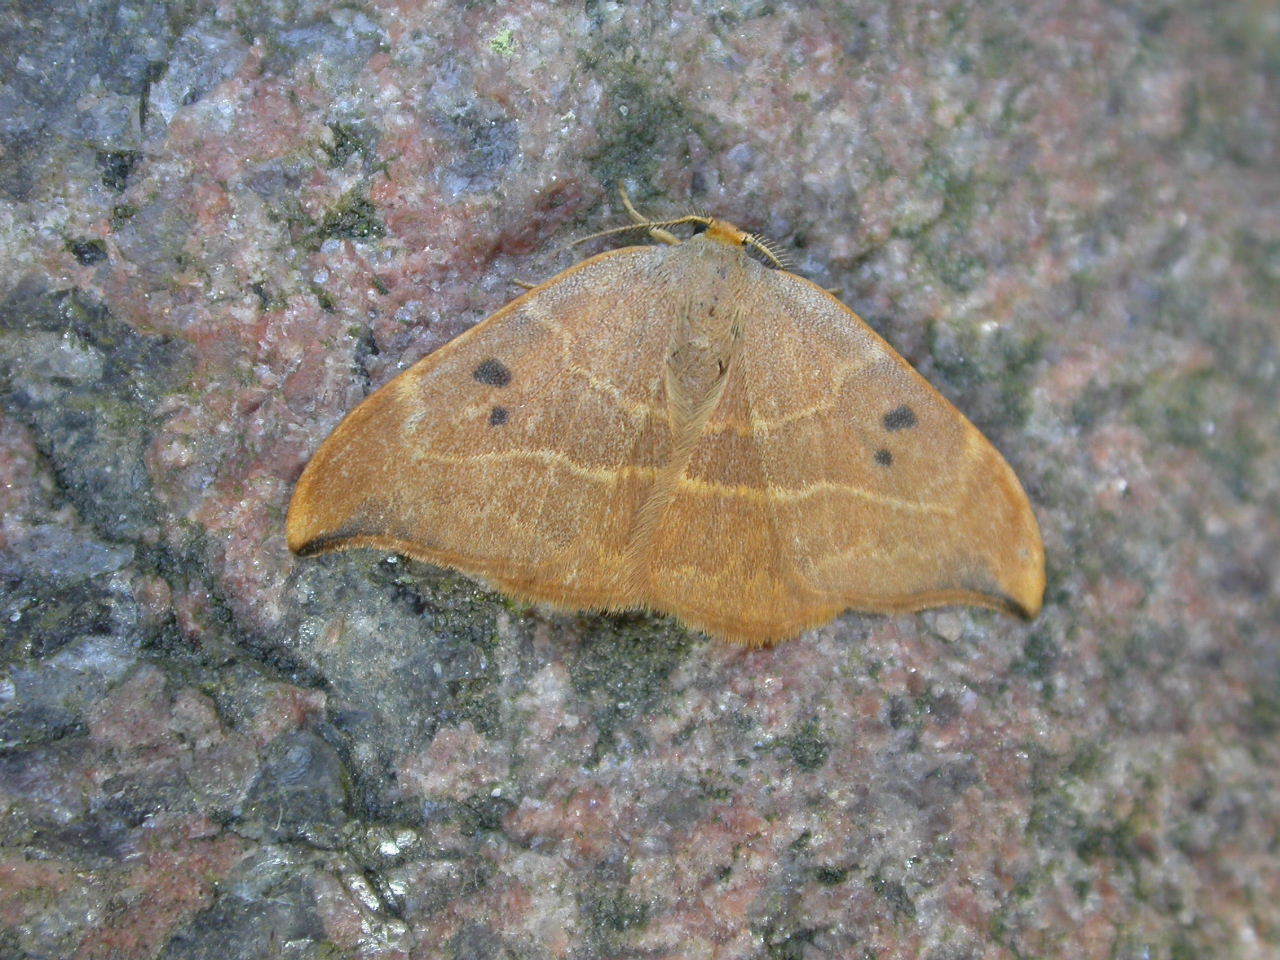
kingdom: Animalia
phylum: Arthropoda
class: Insecta
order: Lepidoptera
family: Drepanidae
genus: Watsonalla
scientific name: Watsonalla binaria
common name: Oak hook-tip
